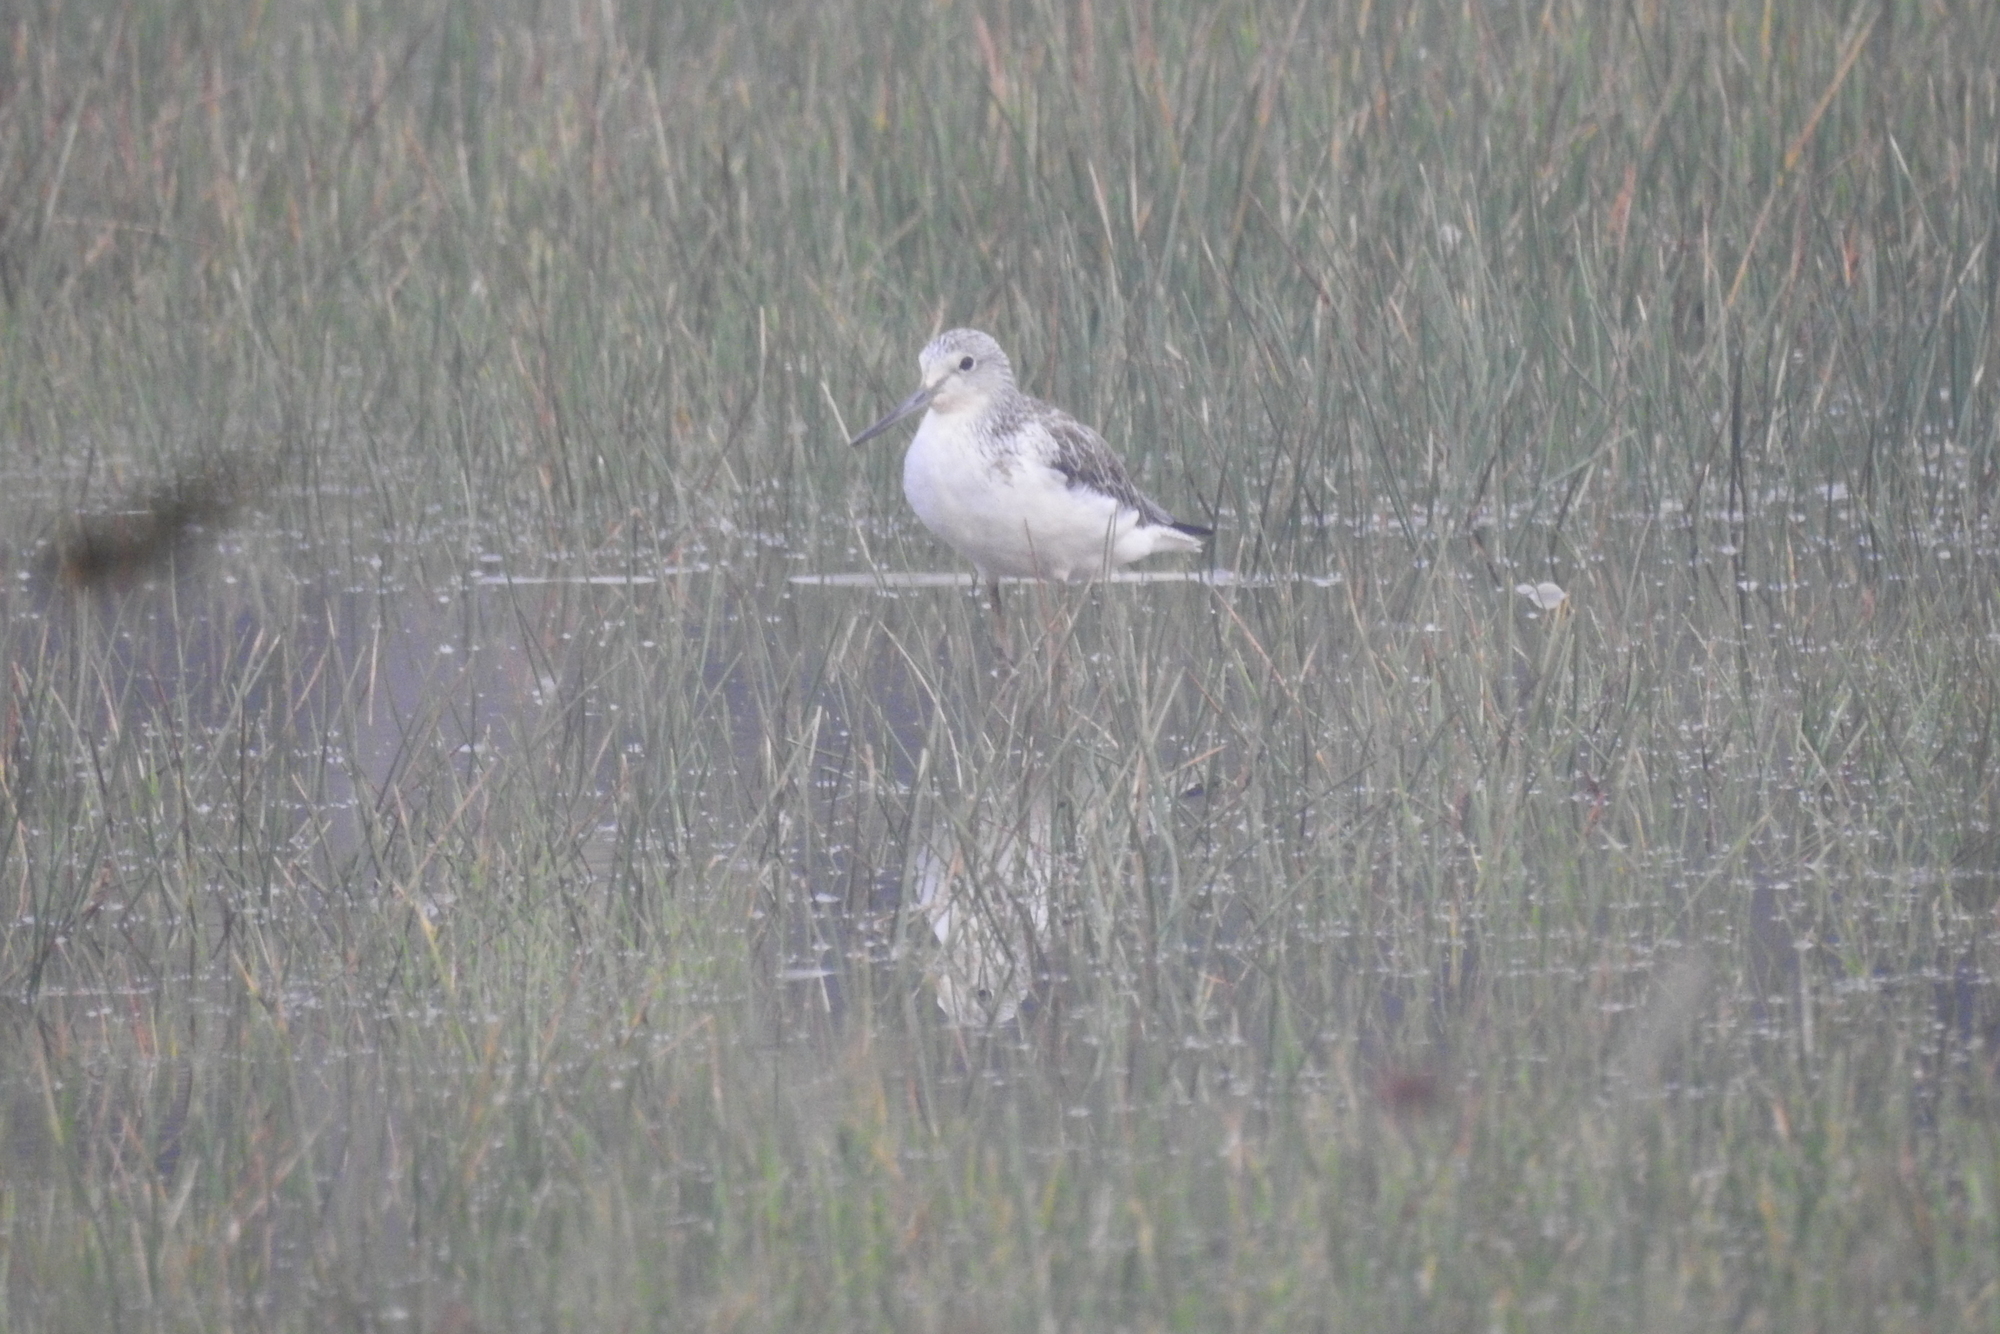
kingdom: Animalia
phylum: Chordata
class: Aves
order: Charadriiformes
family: Scolopacidae
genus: Tringa
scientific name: Tringa nebularia
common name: Common greenshank
